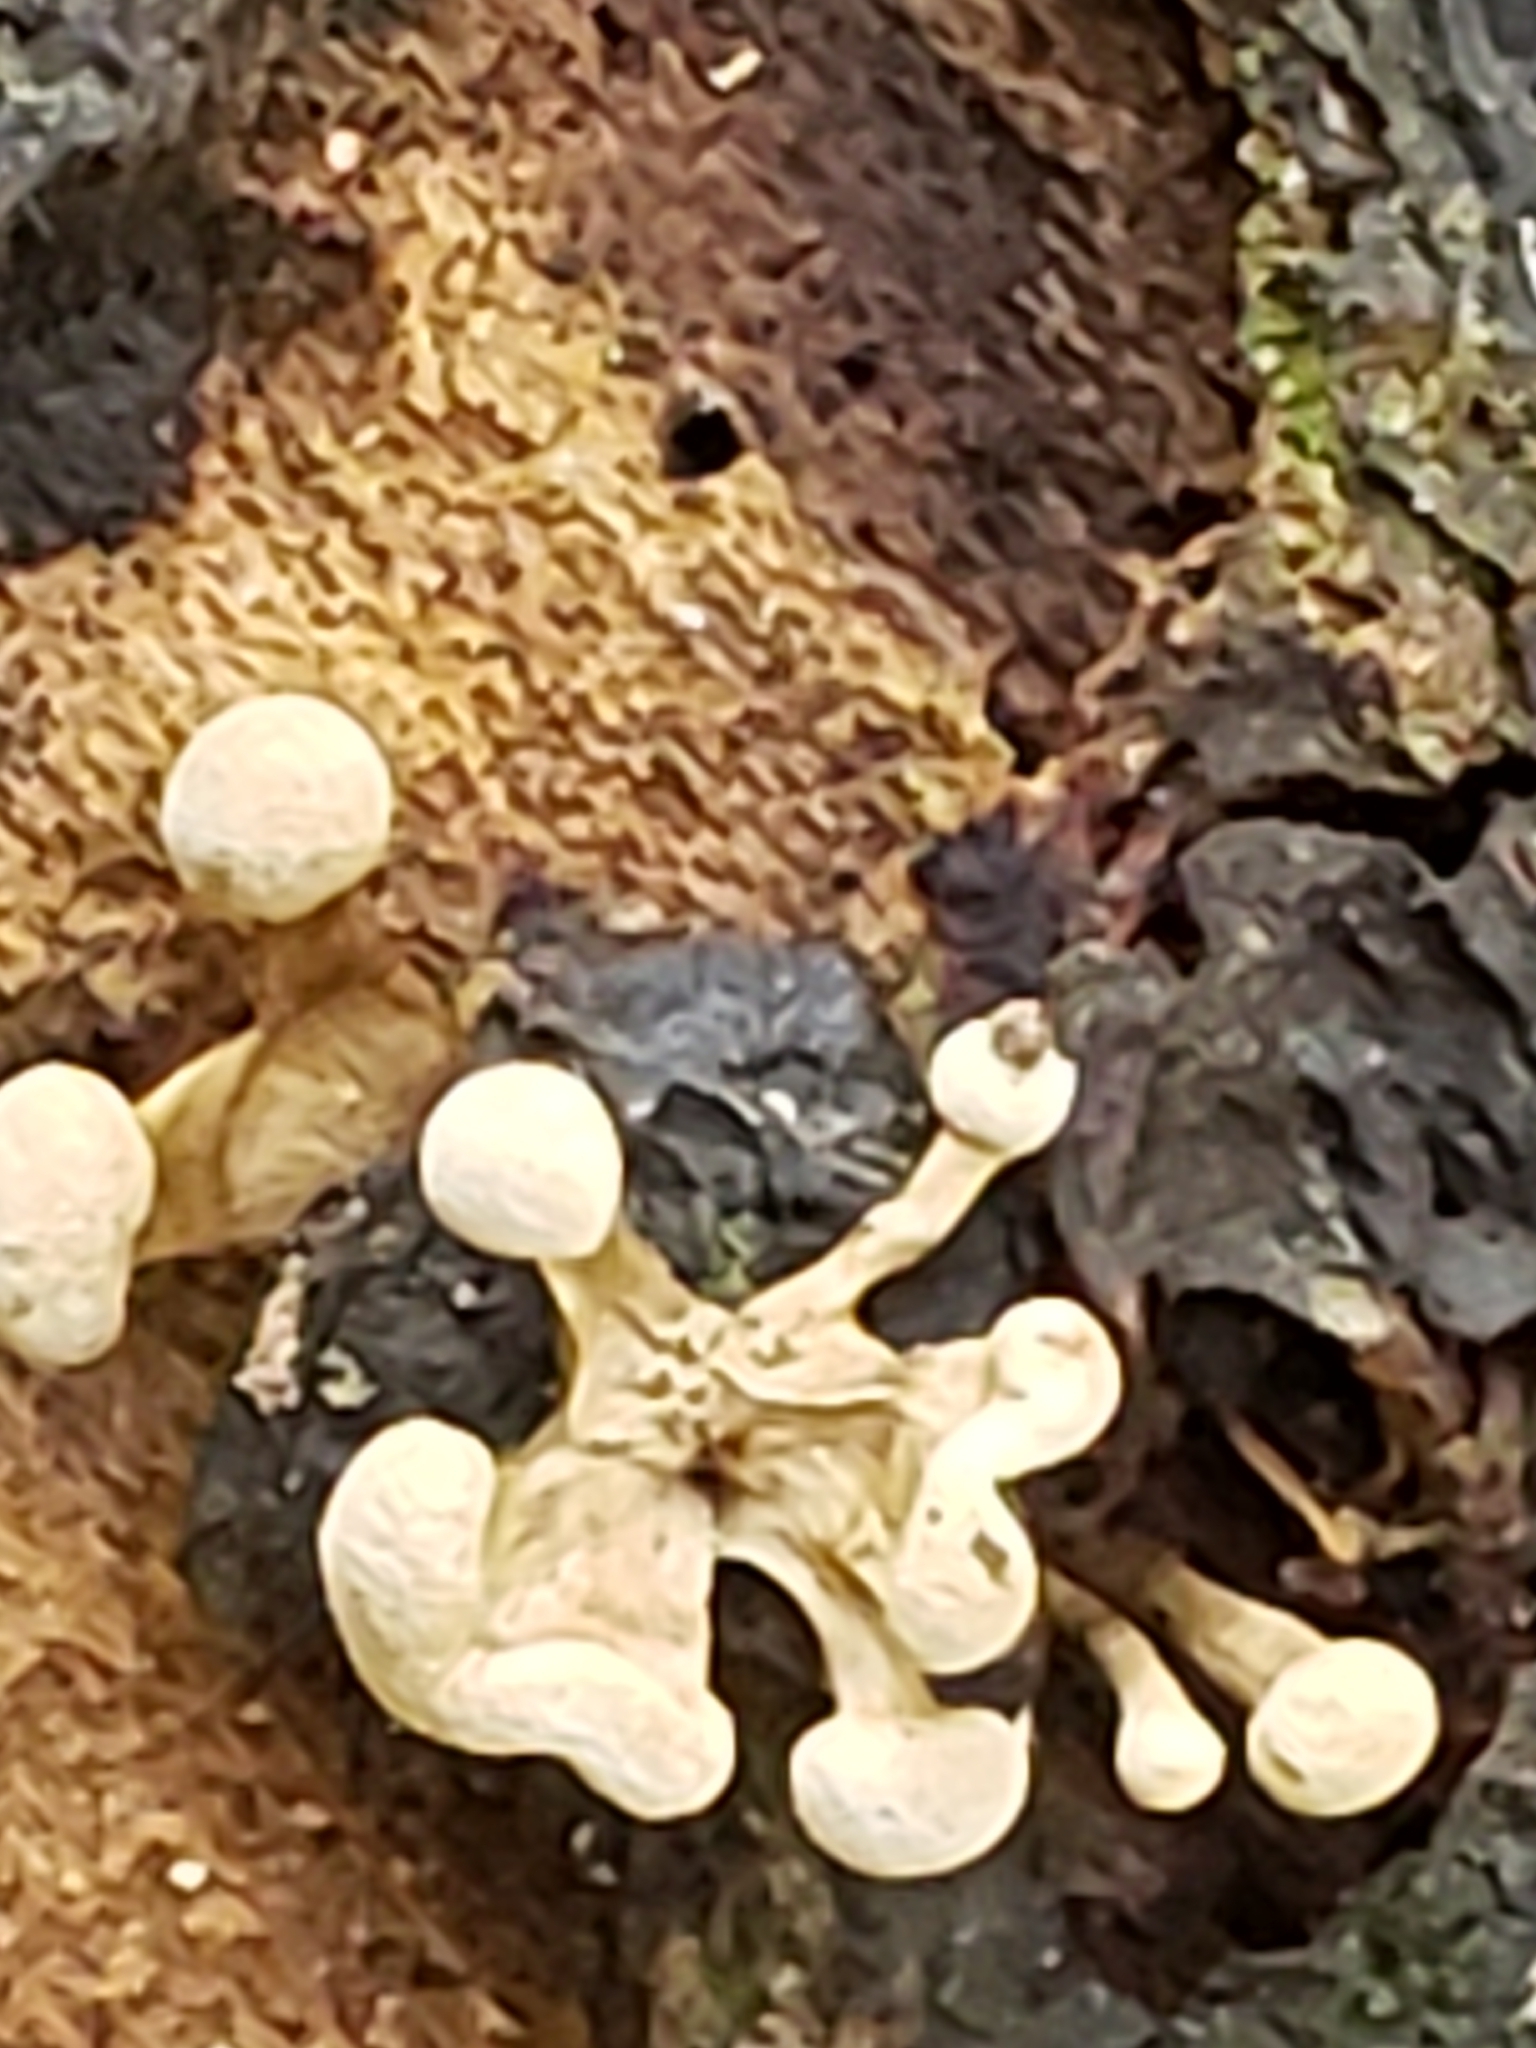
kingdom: Fungi
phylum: Basidiomycota
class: Atractiellomycetes
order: Atractiellales
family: Phleogenaceae
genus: Phleogena
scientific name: Phleogena faginea
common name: Fenugreek stalkball
